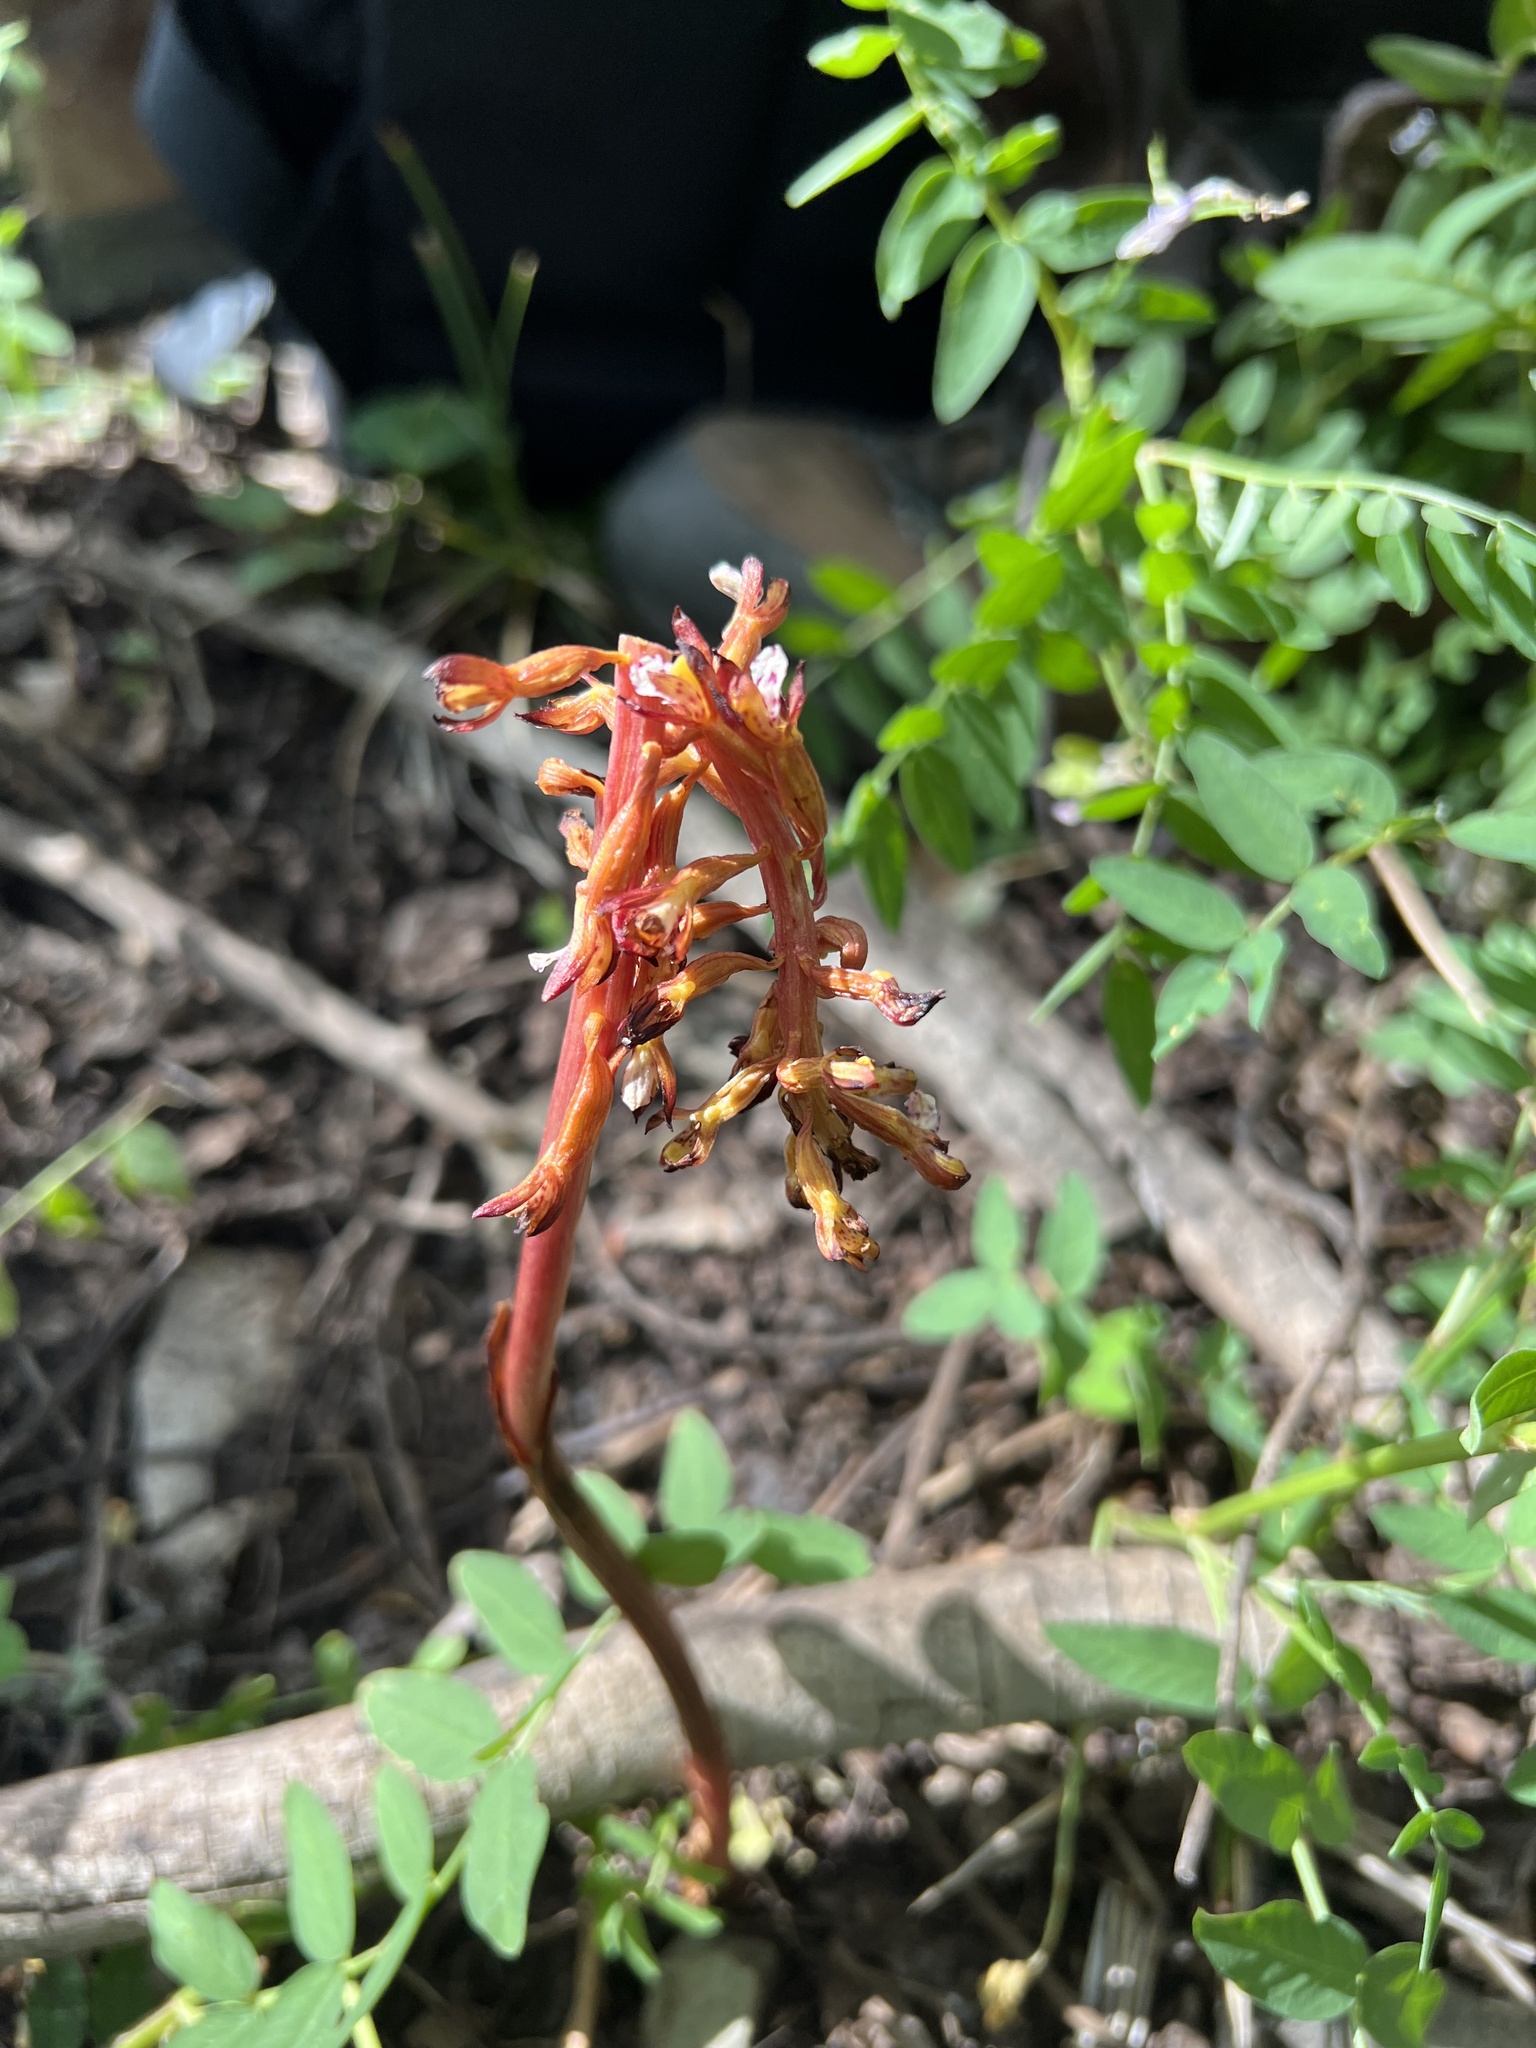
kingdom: Plantae
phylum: Tracheophyta
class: Liliopsida
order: Asparagales
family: Orchidaceae
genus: Corallorhiza
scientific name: Corallorhiza maculata
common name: Spotted coralroot
